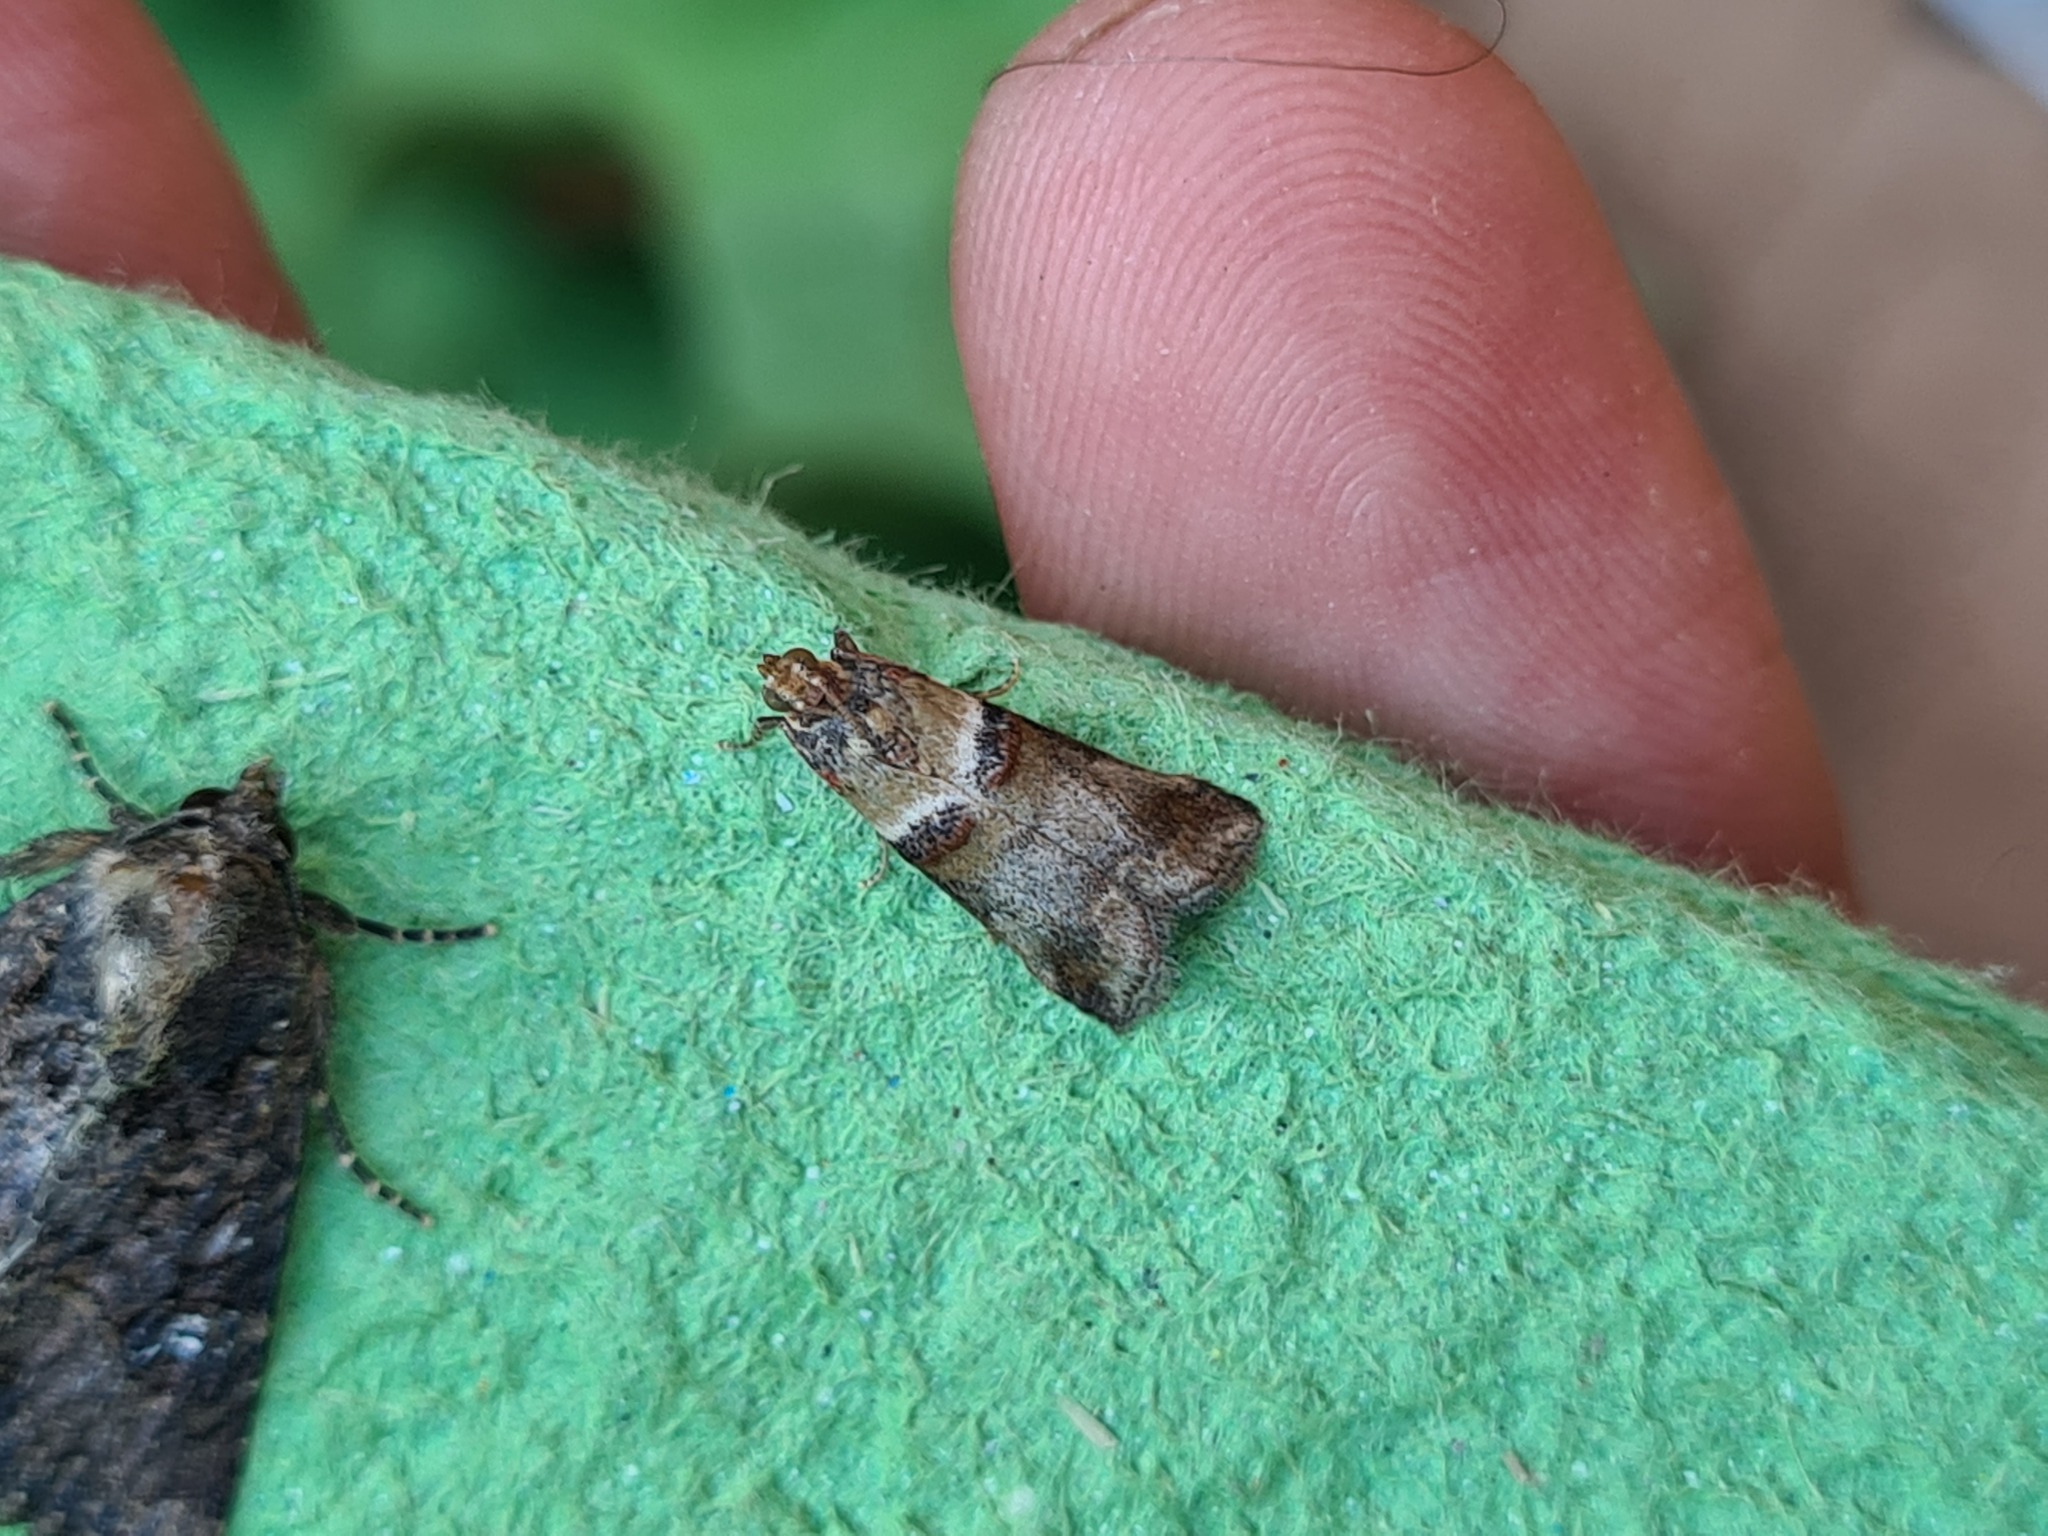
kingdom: Animalia
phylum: Arthropoda
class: Insecta
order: Lepidoptera
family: Pyralidae
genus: Acrobasis
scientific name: Acrobasis tumidana
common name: Scarce oak knot-horn
